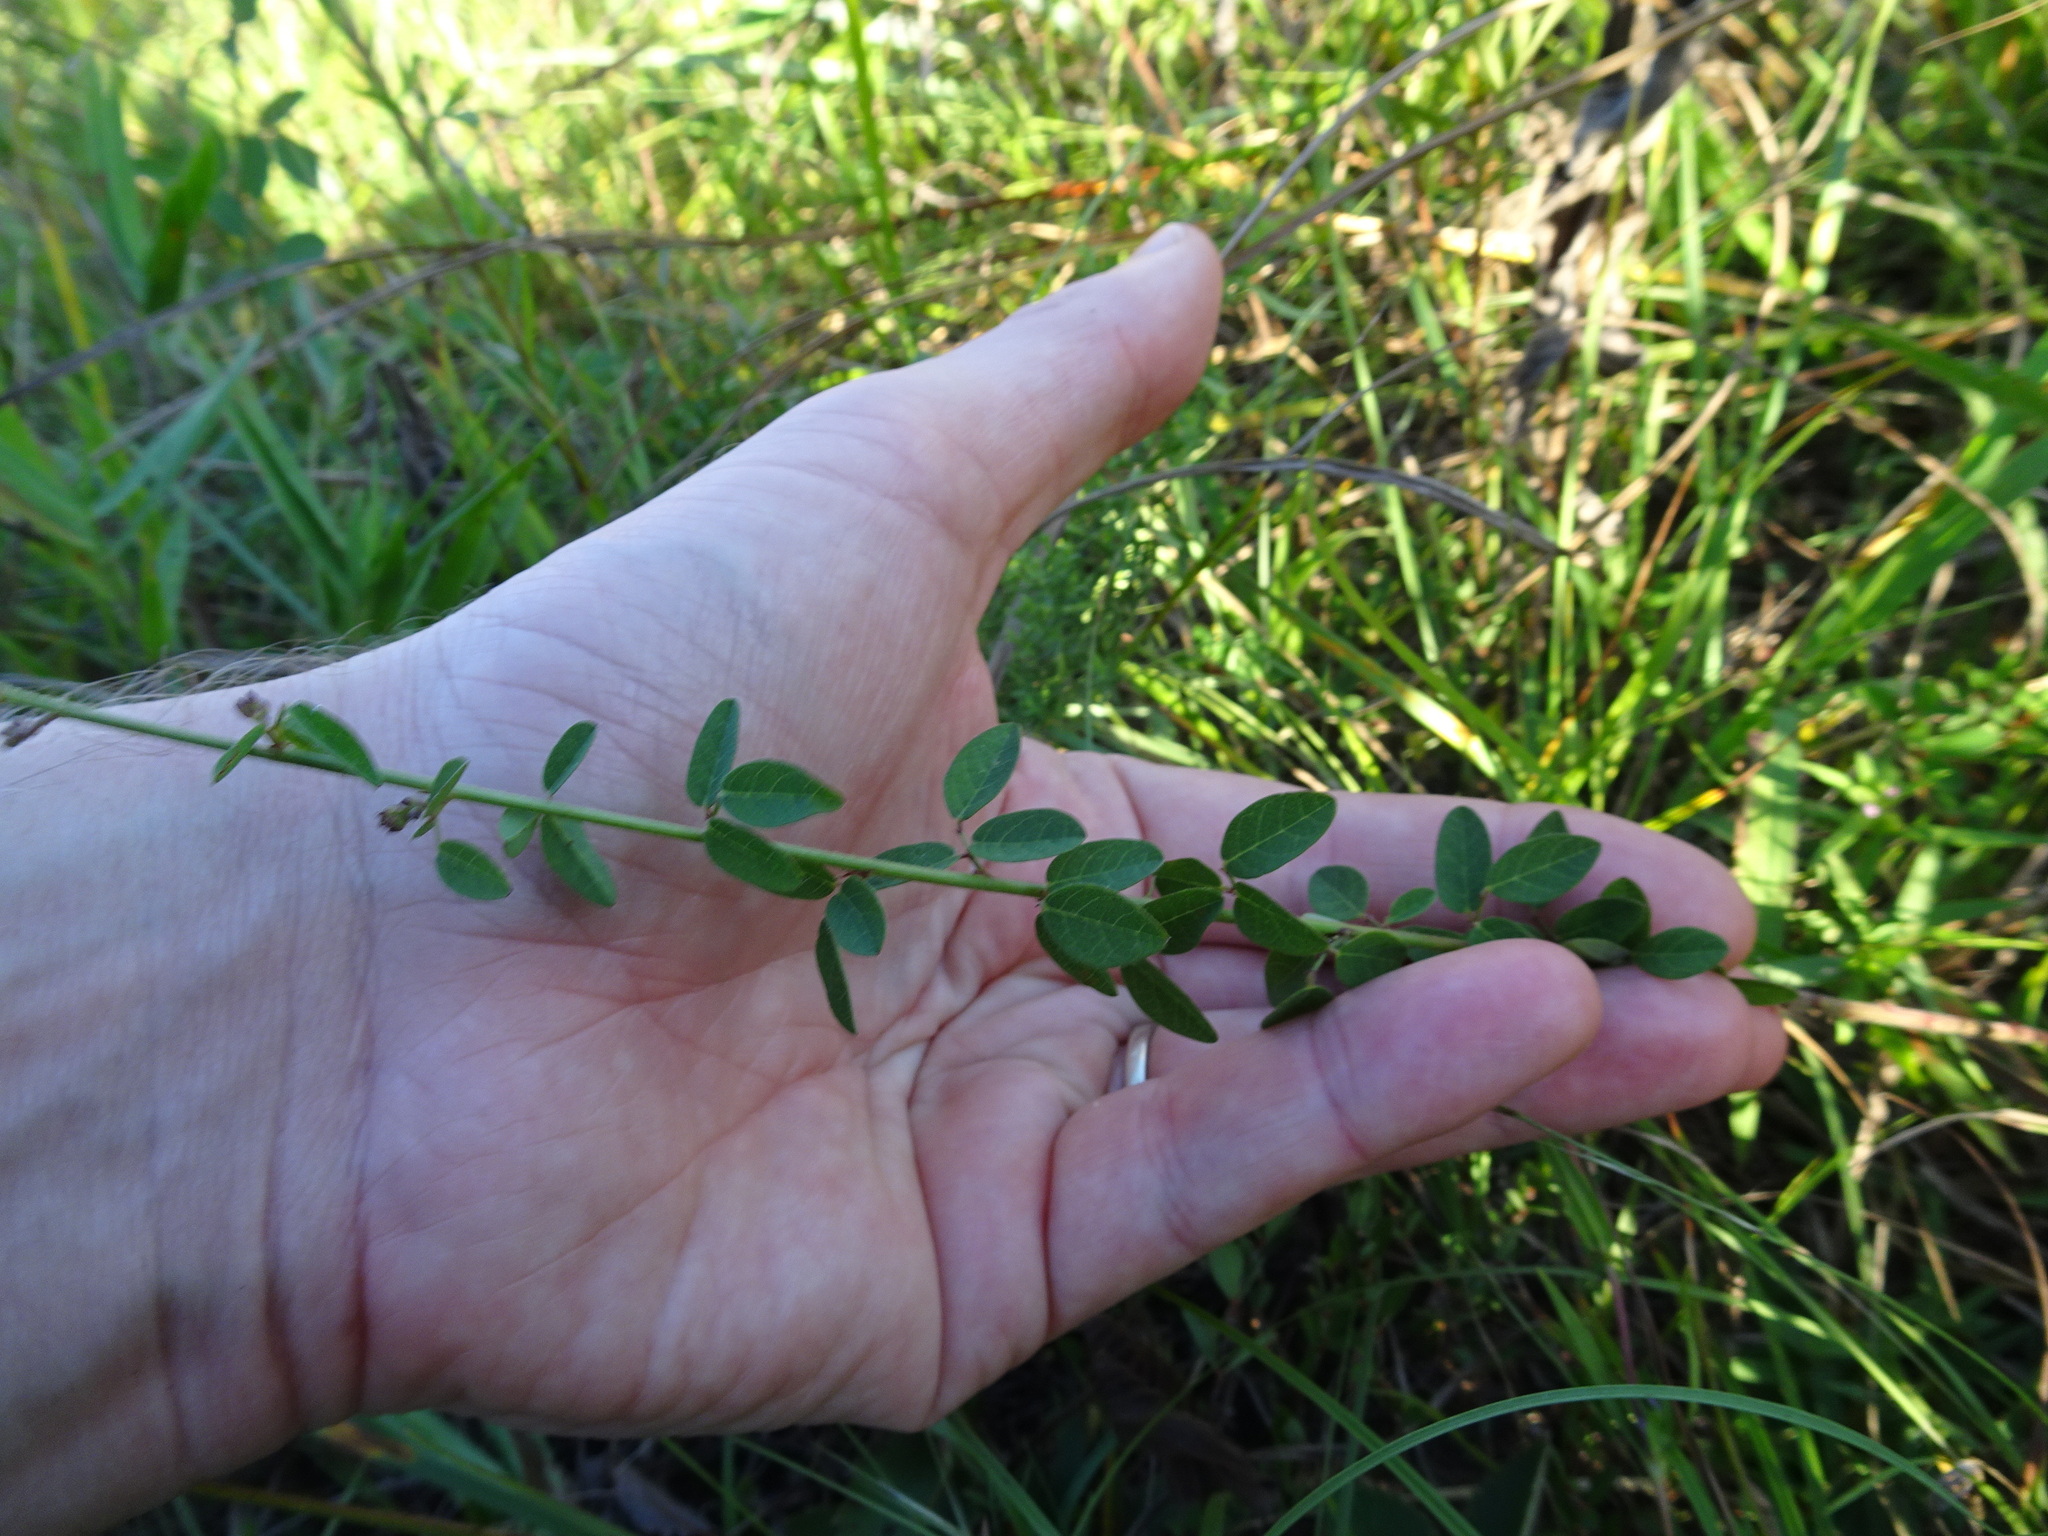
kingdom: Plantae
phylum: Tracheophyta
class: Magnoliopsida
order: Fabales
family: Fabaceae
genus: Desmodium
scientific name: Desmodium ciliare
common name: Hairy small-leaf ticktrefoil
